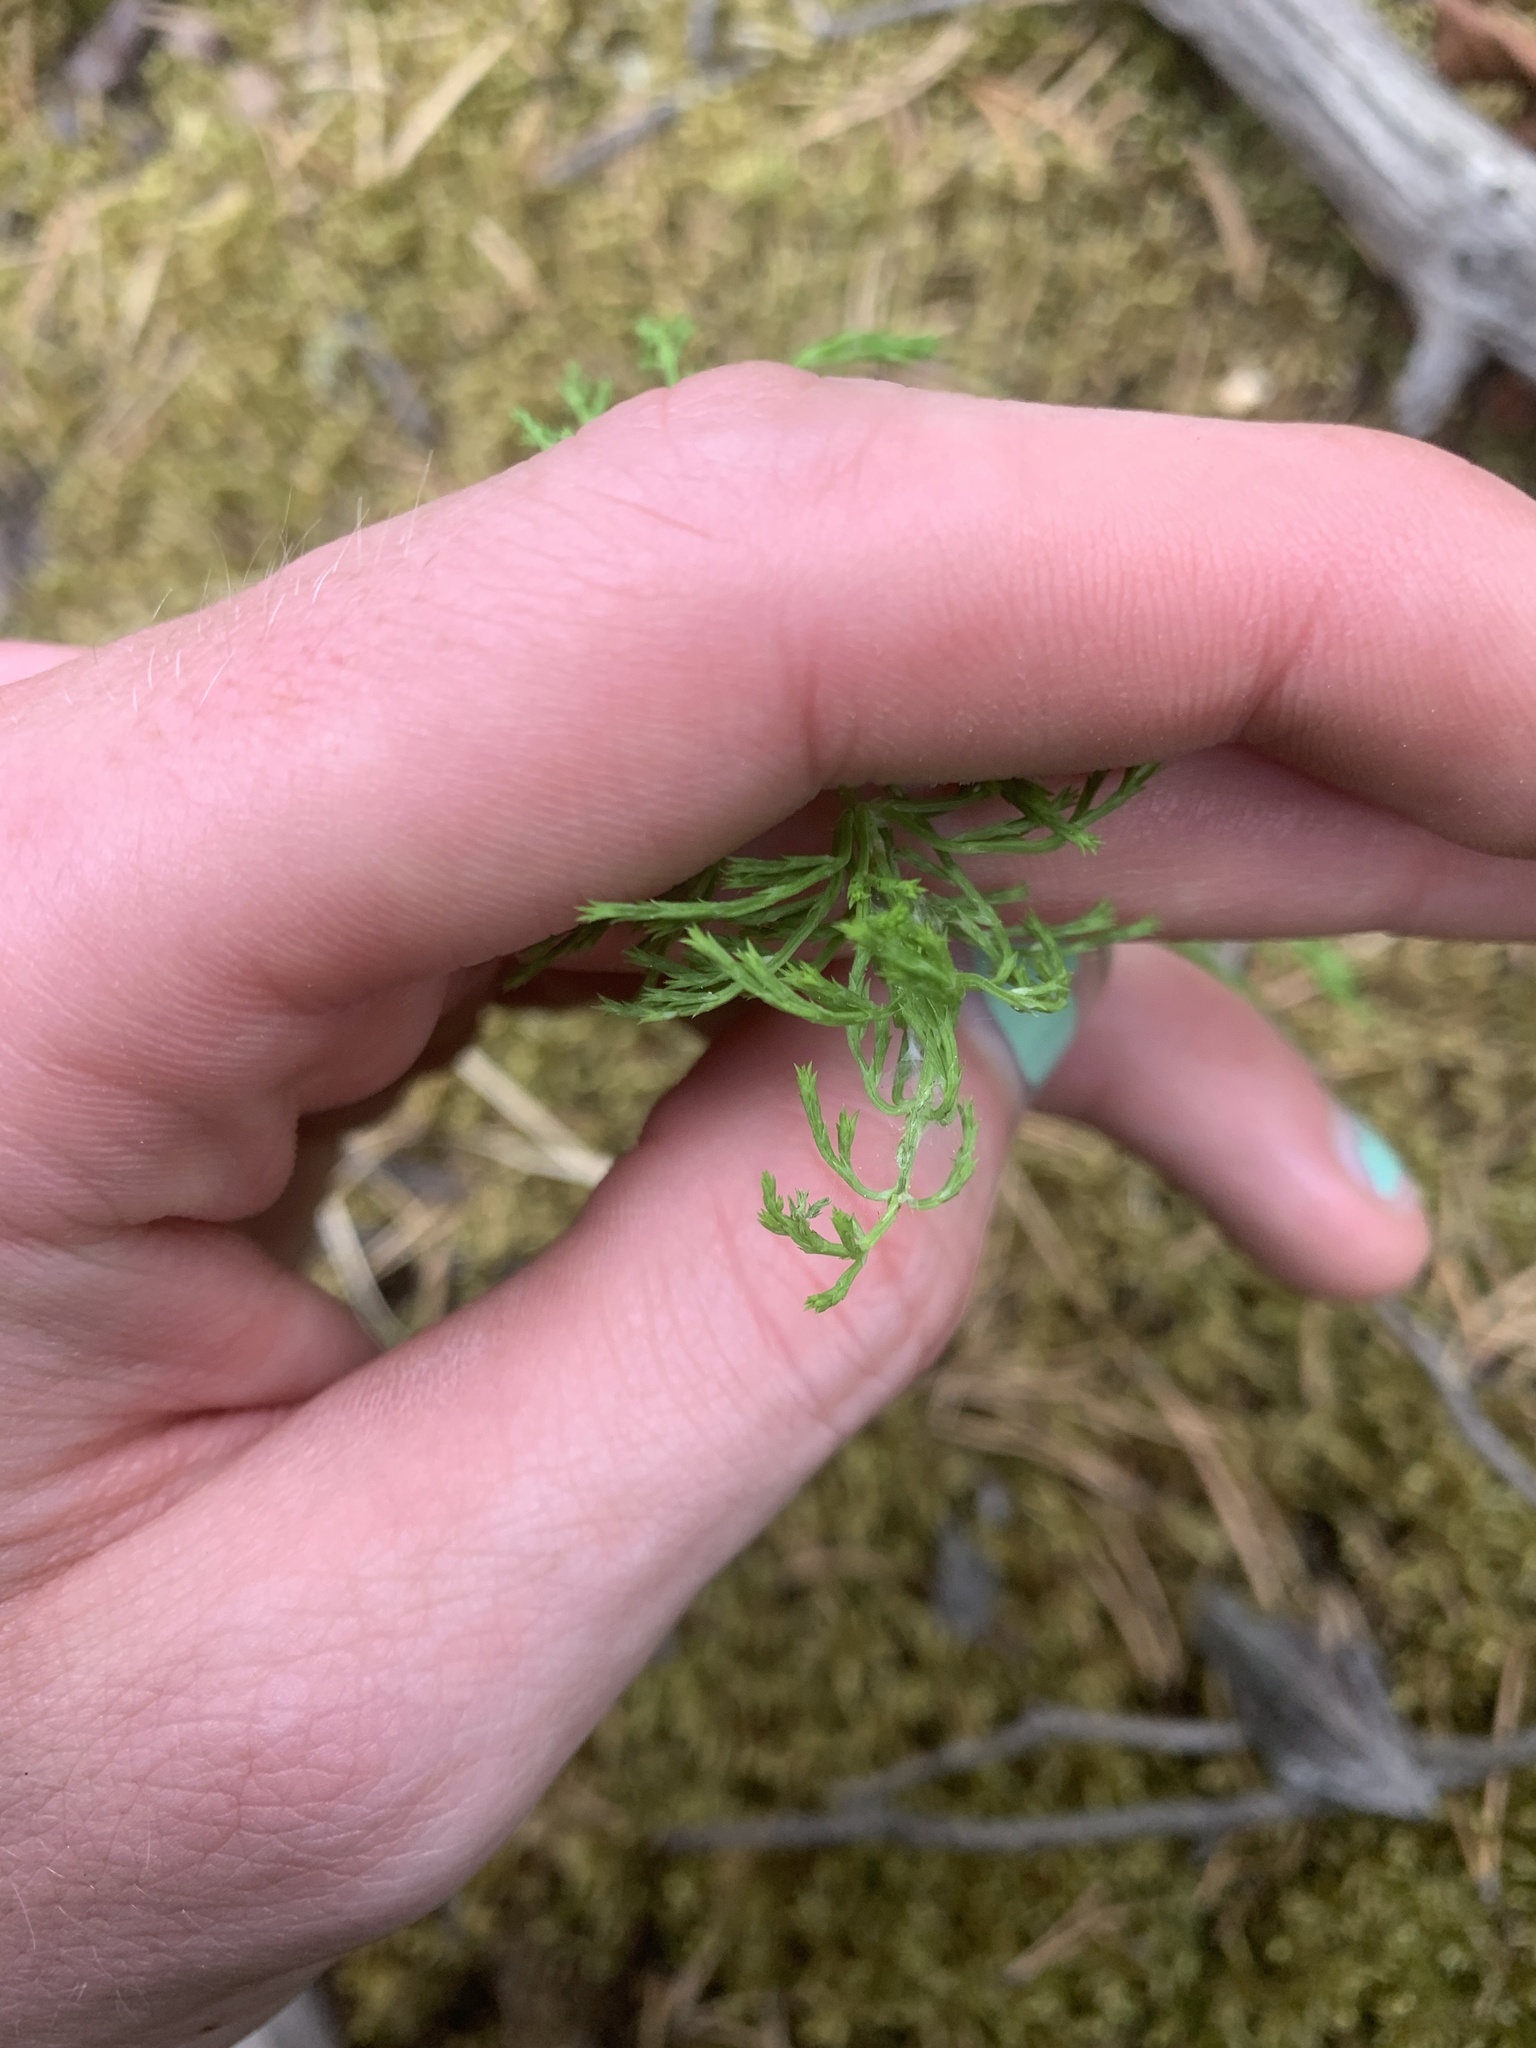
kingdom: Plantae
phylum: Tracheophyta
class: Polypodiopsida
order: Equisetales
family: Equisetaceae
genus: Equisetum
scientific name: Equisetum sylvaticum
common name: Wood horsetail
